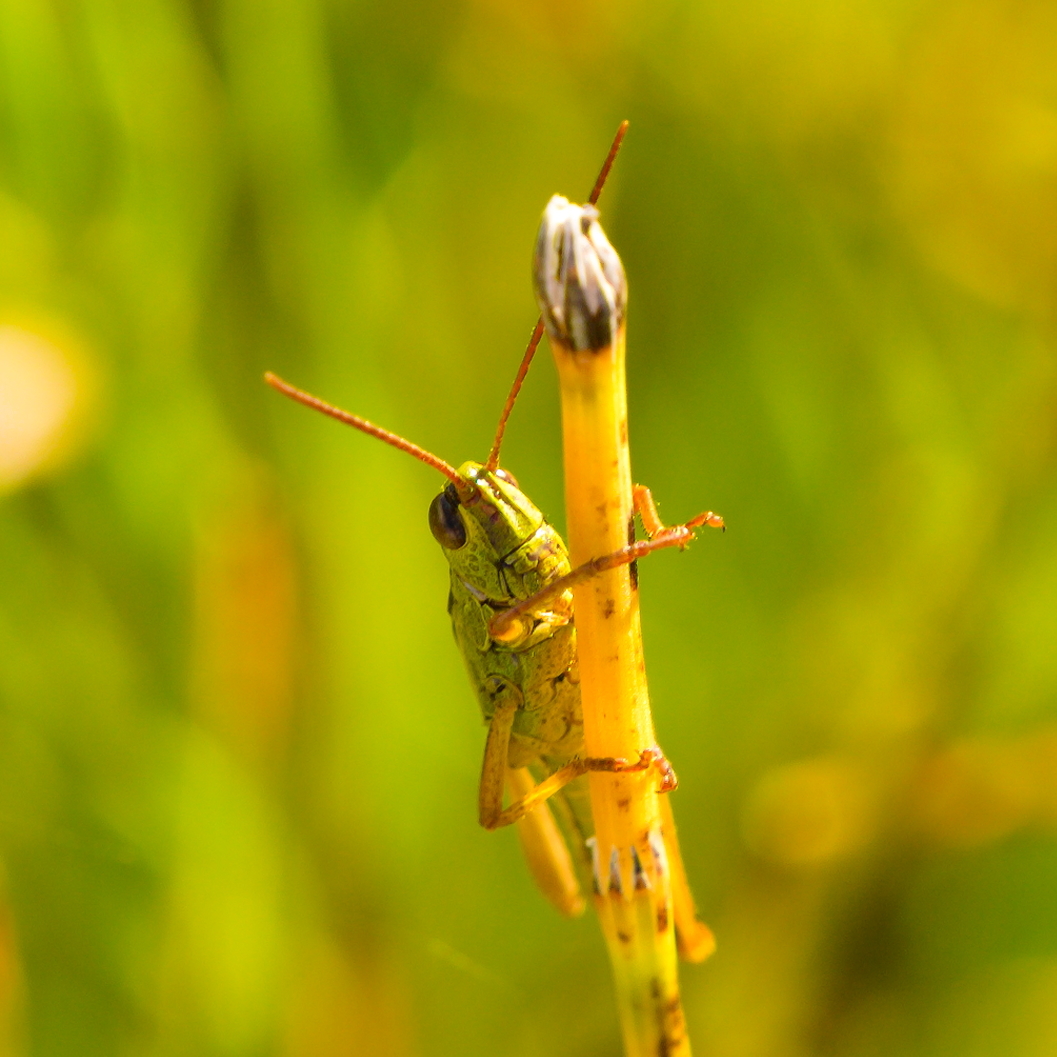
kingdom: Animalia
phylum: Arthropoda
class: Insecta
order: Orthoptera
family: Acrididae
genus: Mecostethus
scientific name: Mecostethus parapleurus
